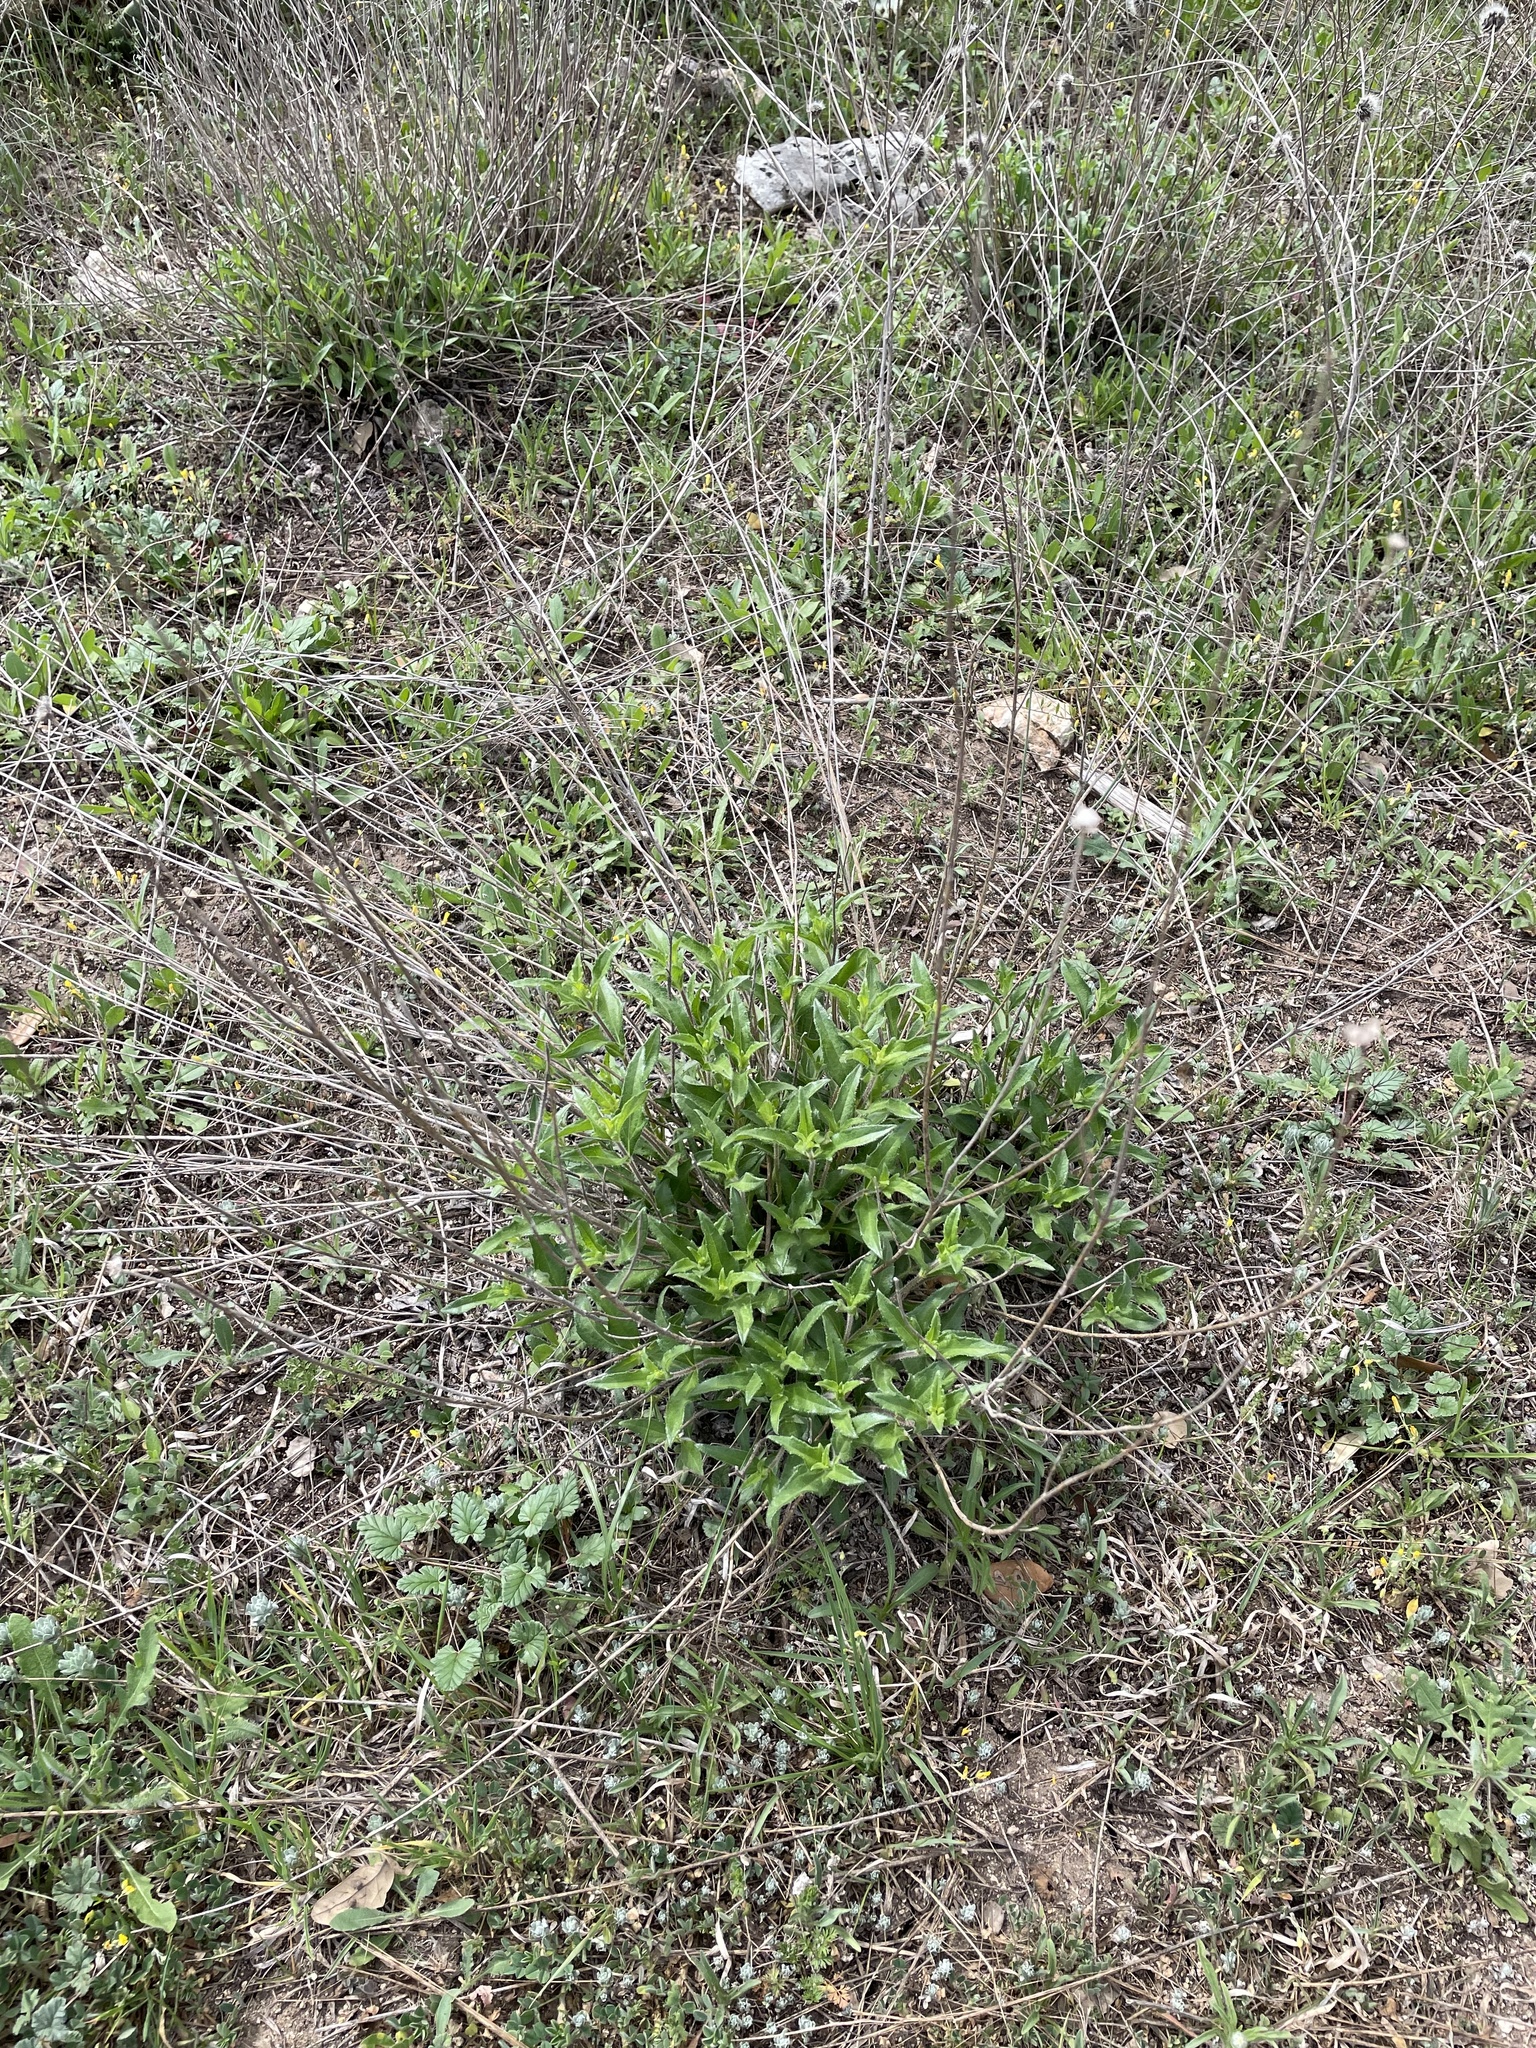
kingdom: Plantae
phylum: Tracheophyta
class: Magnoliopsida
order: Asterales
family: Asteraceae
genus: Wedelia
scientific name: Wedelia acapulcensis
